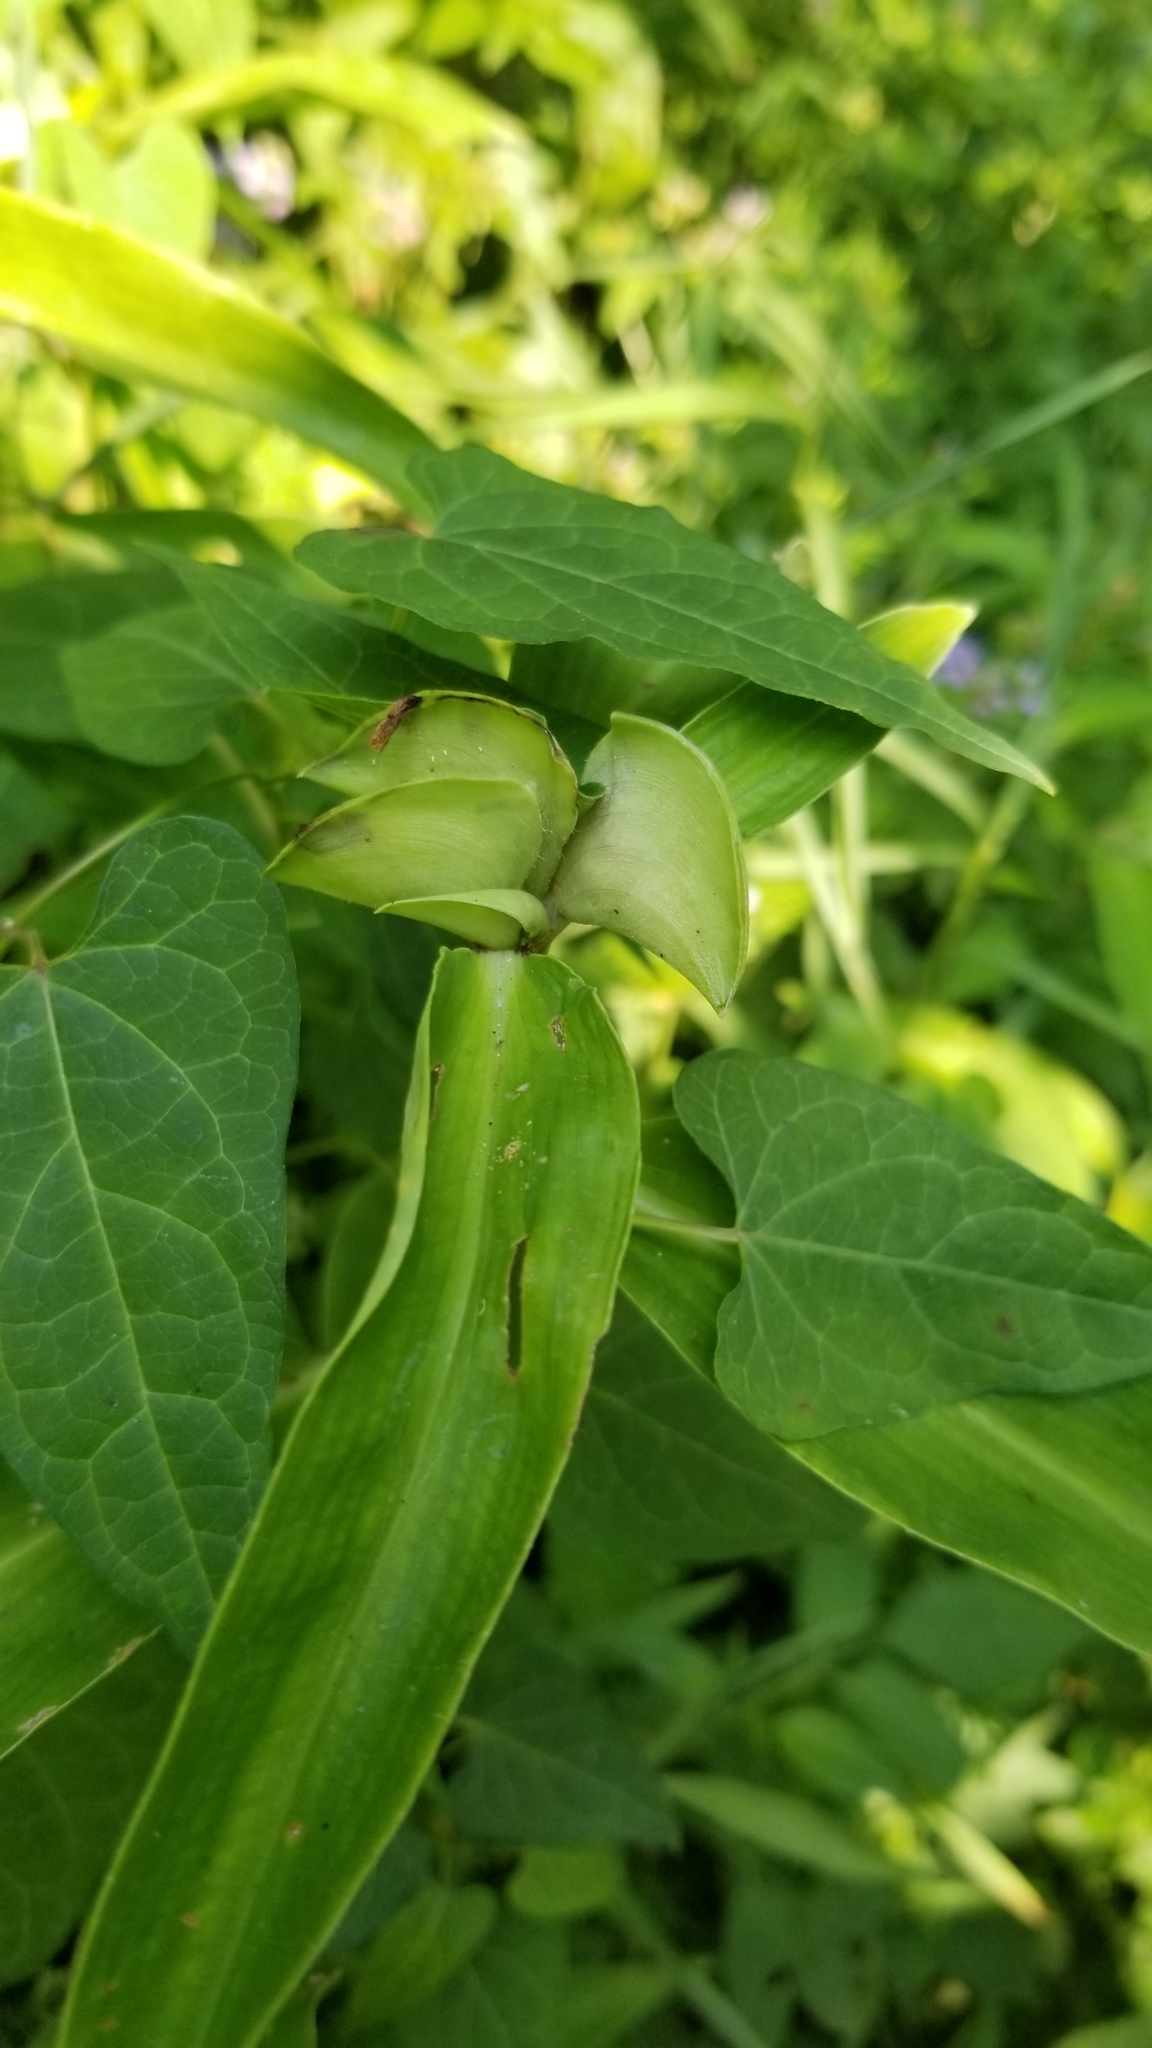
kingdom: Plantae
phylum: Tracheophyta
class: Liliopsida
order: Commelinales
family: Commelinaceae
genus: Commelina
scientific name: Commelina virginica
